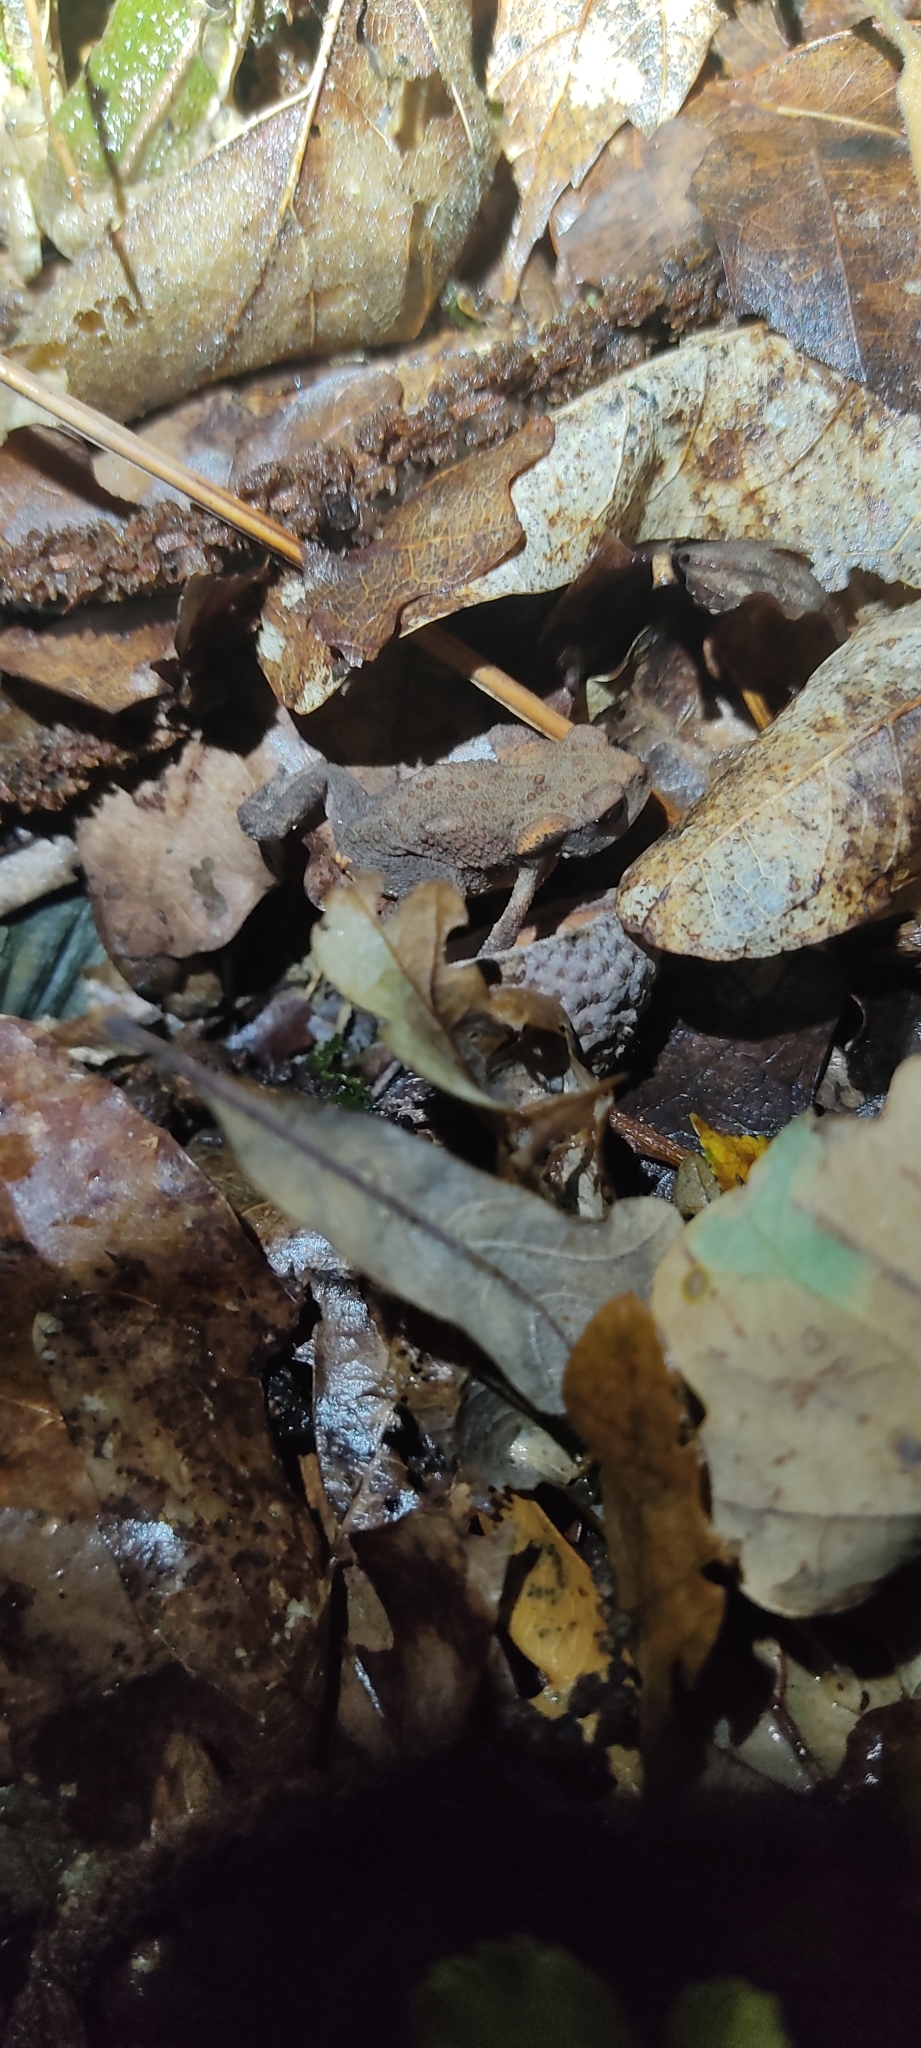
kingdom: Animalia
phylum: Chordata
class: Amphibia
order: Anura
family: Bufonidae
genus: Bufo
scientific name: Bufo spinosus
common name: Western common toad
